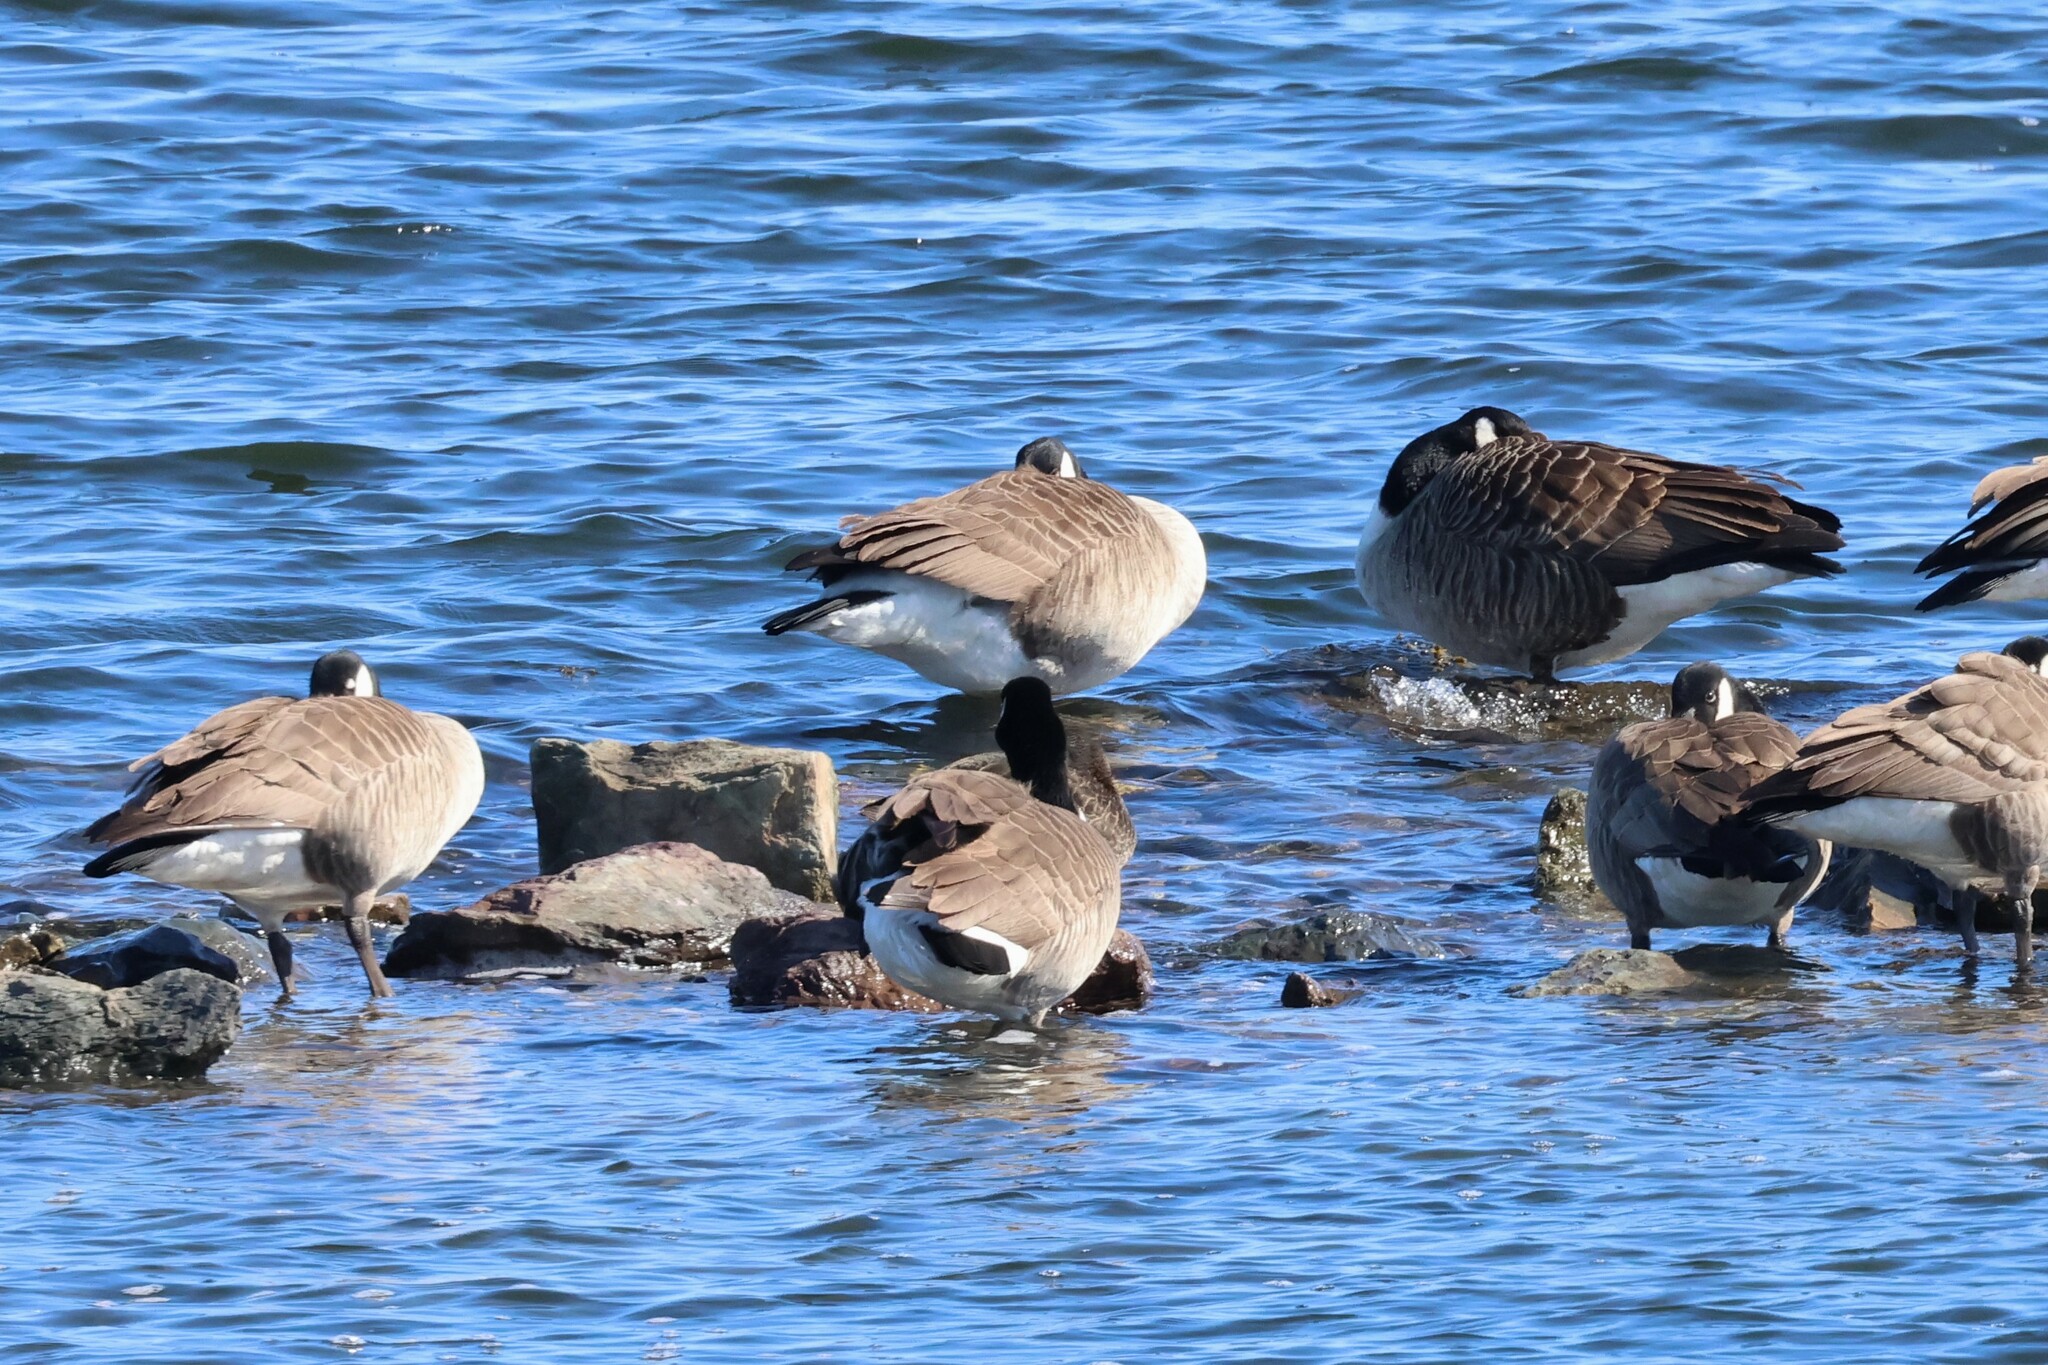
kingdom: Animalia
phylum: Chordata
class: Aves
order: Anseriformes
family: Anatidae
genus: Branta
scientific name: Branta canadensis
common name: Canada goose
